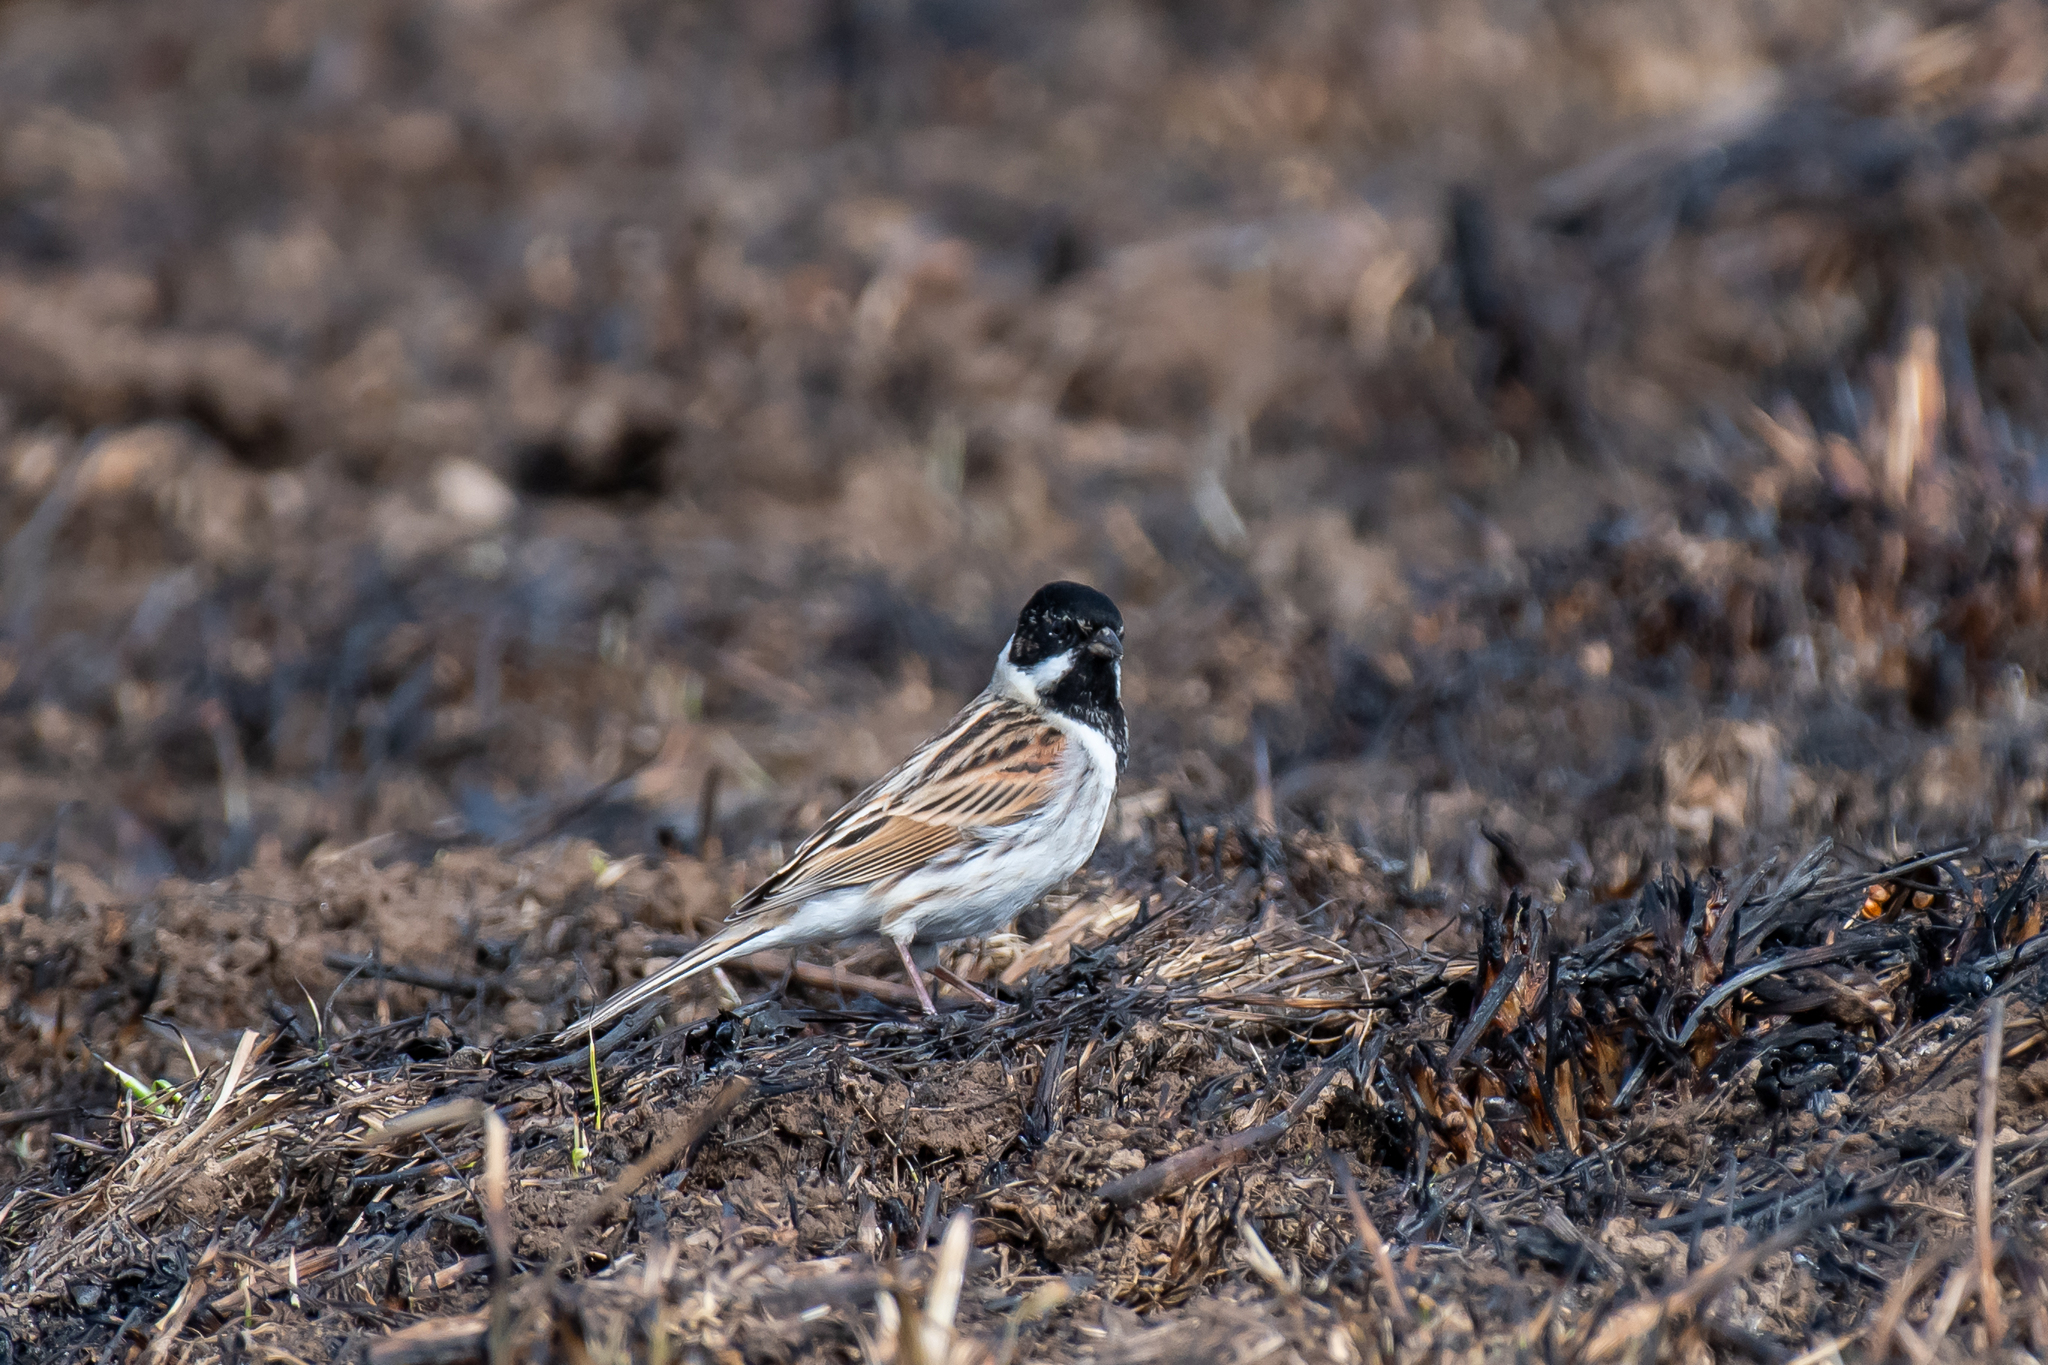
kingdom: Animalia
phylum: Chordata
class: Aves
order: Passeriformes
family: Emberizidae
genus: Emberiza
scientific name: Emberiza schoeniclus
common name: Reed bunting
